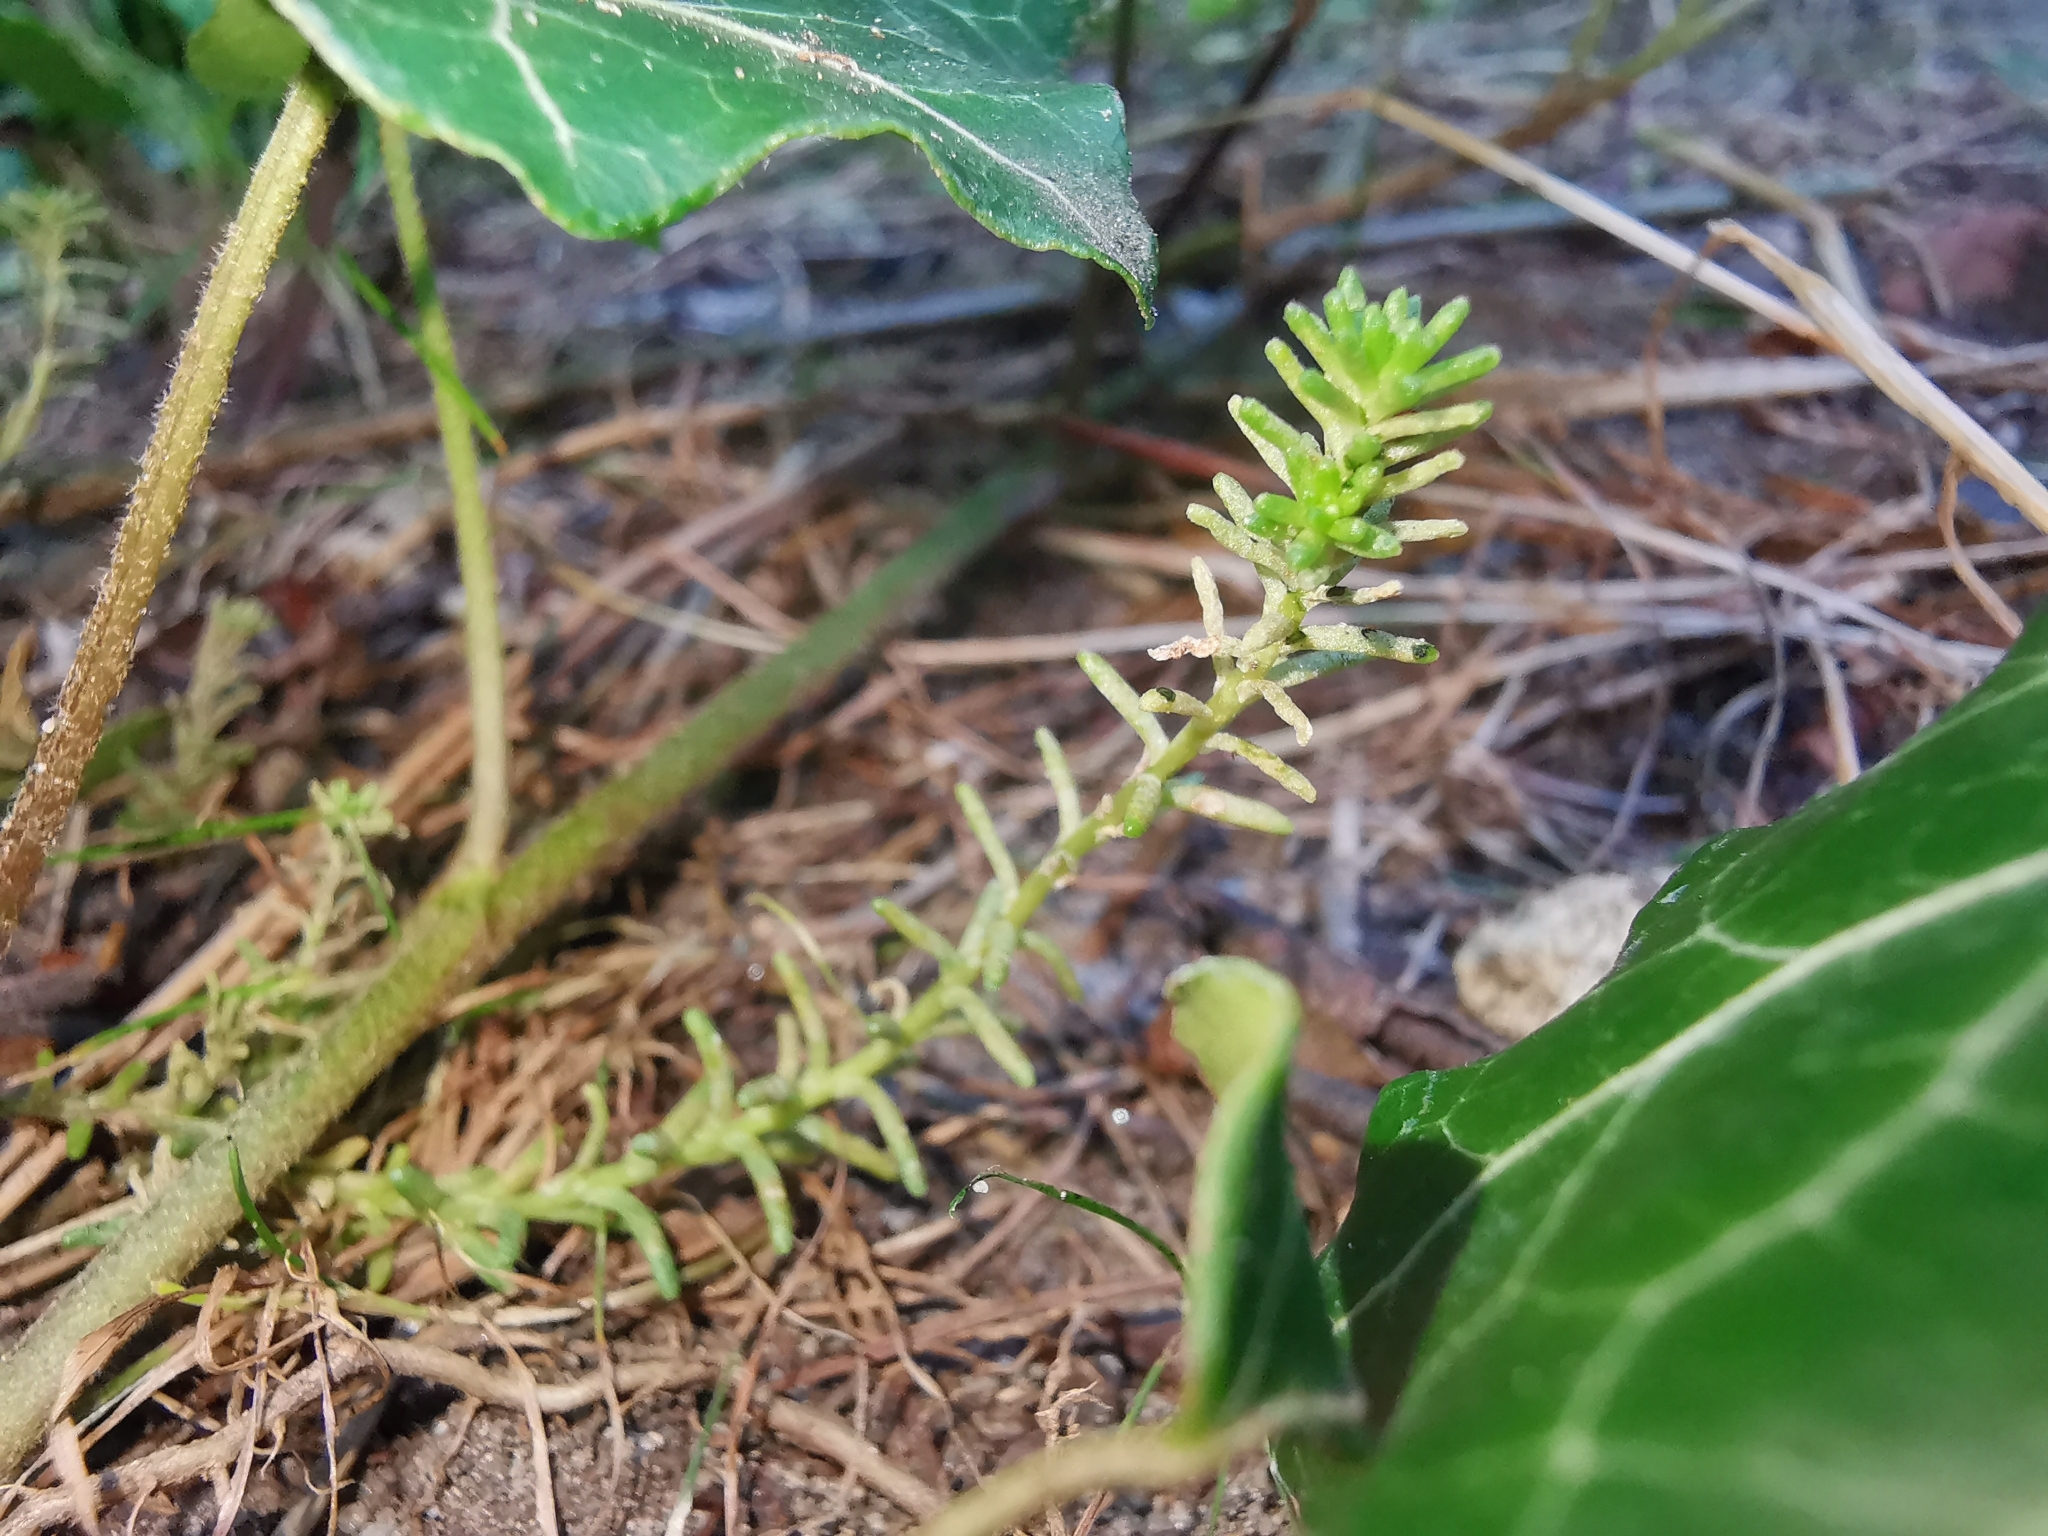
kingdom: Plantae
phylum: Tracheophyta
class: Magnoliopsida
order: Saxifragales
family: Crassulaceae
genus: Sedum
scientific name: Sedum sexangulare
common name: Tasteless stonecrop
